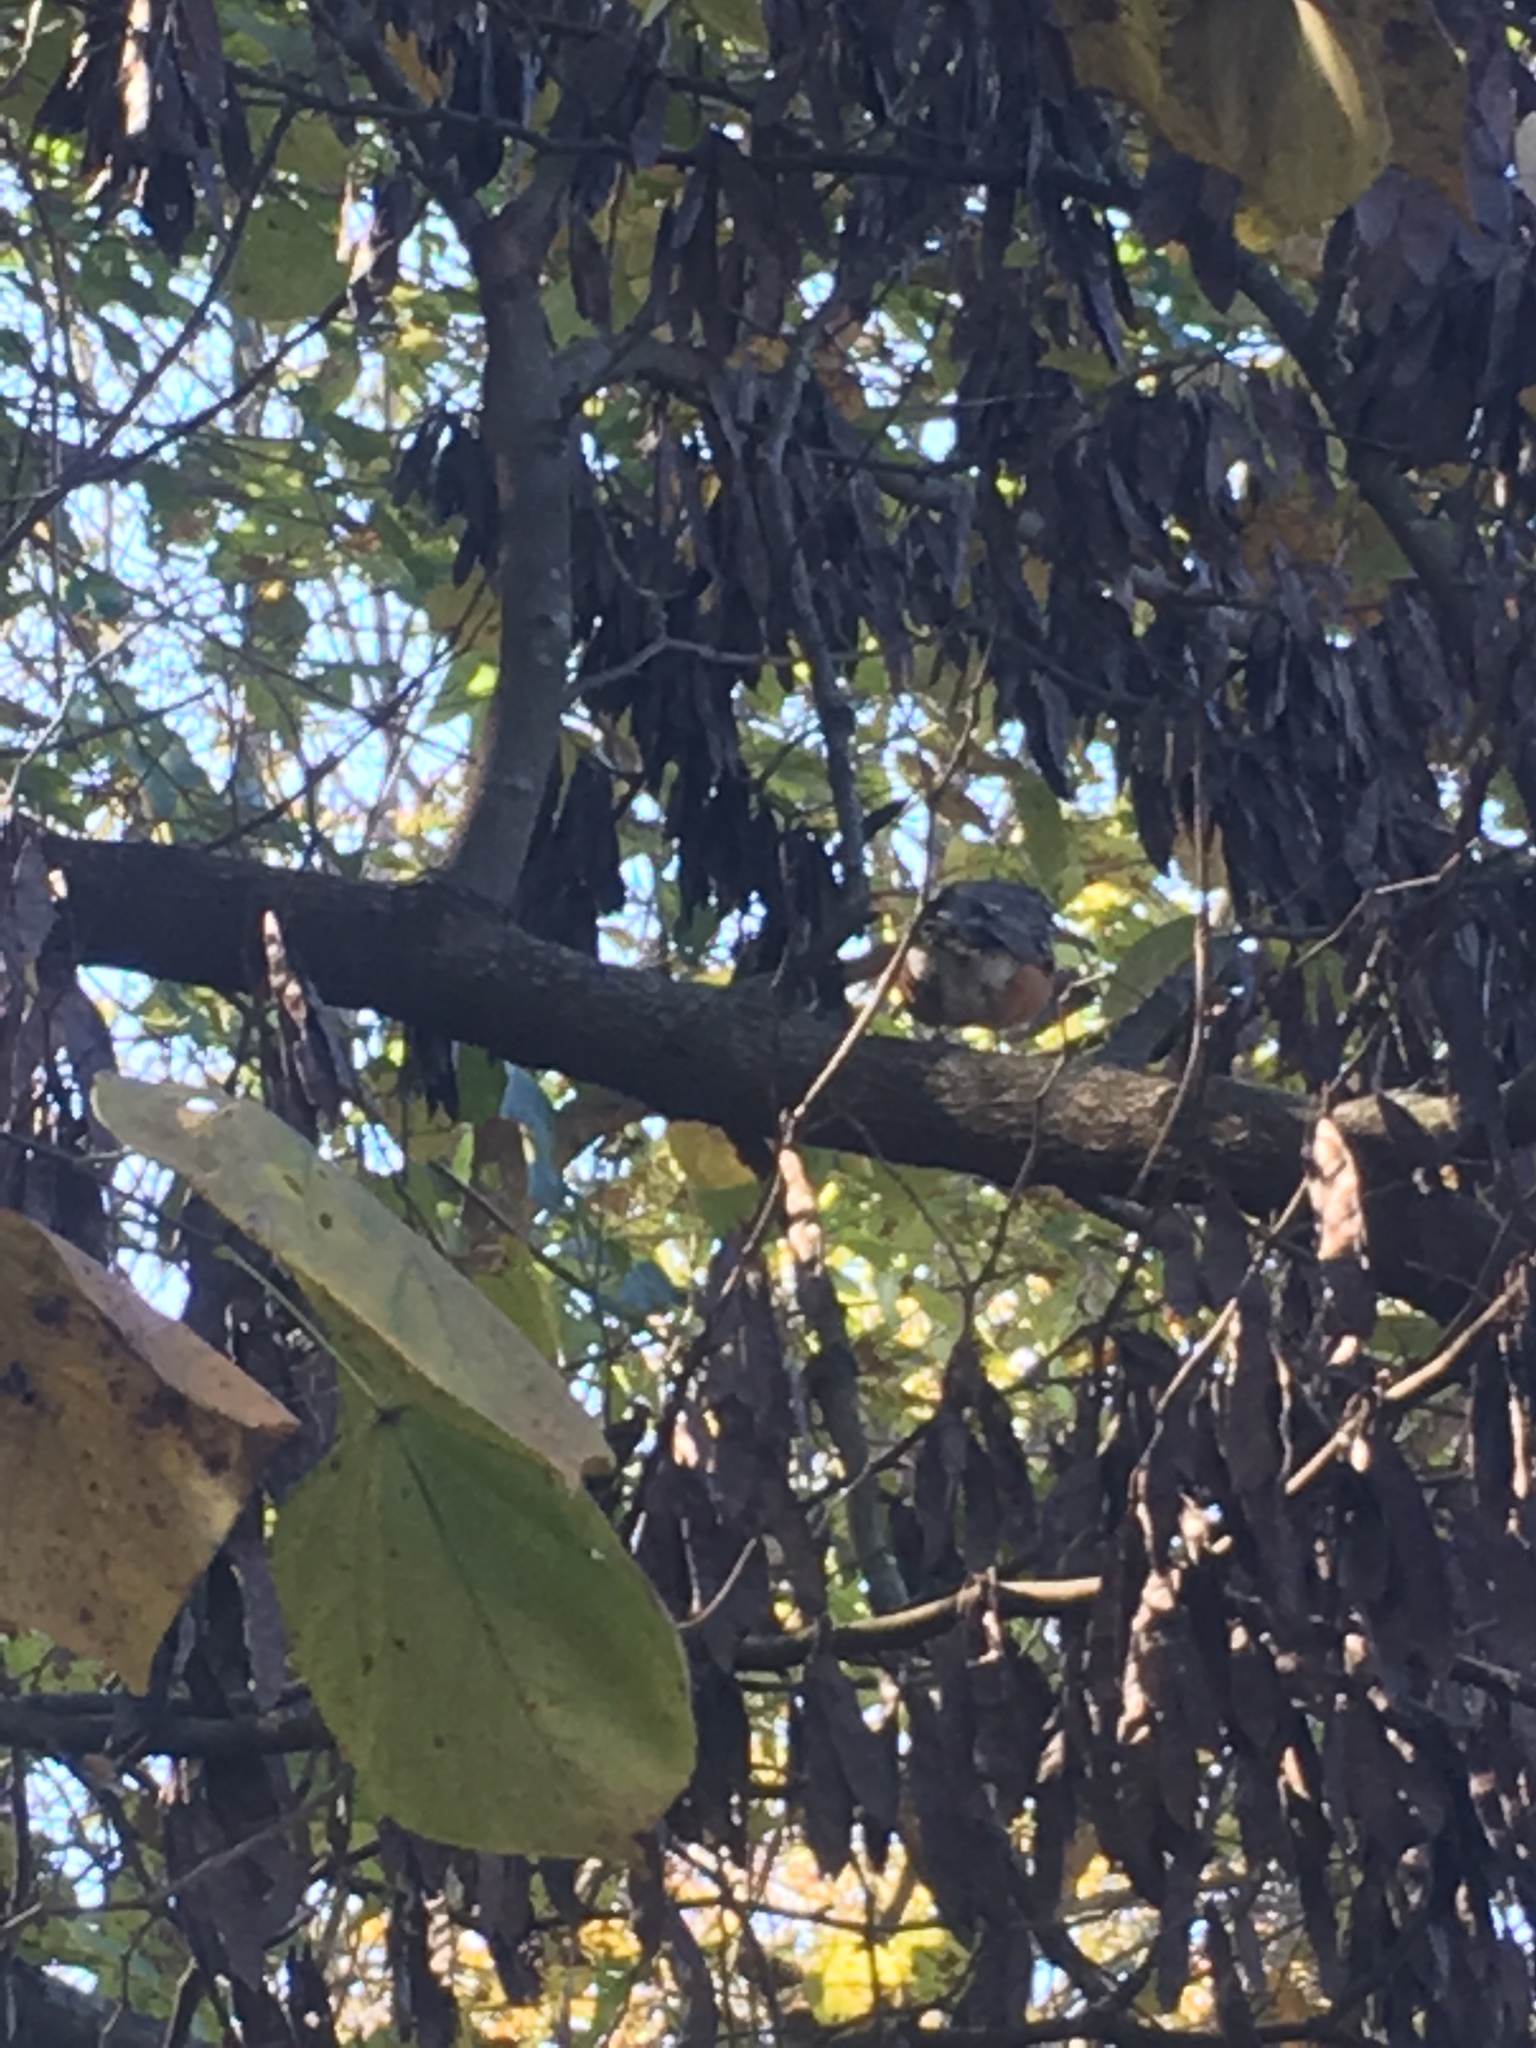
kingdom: Animalia
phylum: Chordata
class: Aves
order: Passeriformes
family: Turdidae
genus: Turdus
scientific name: Turdus migratorius
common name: American robin
